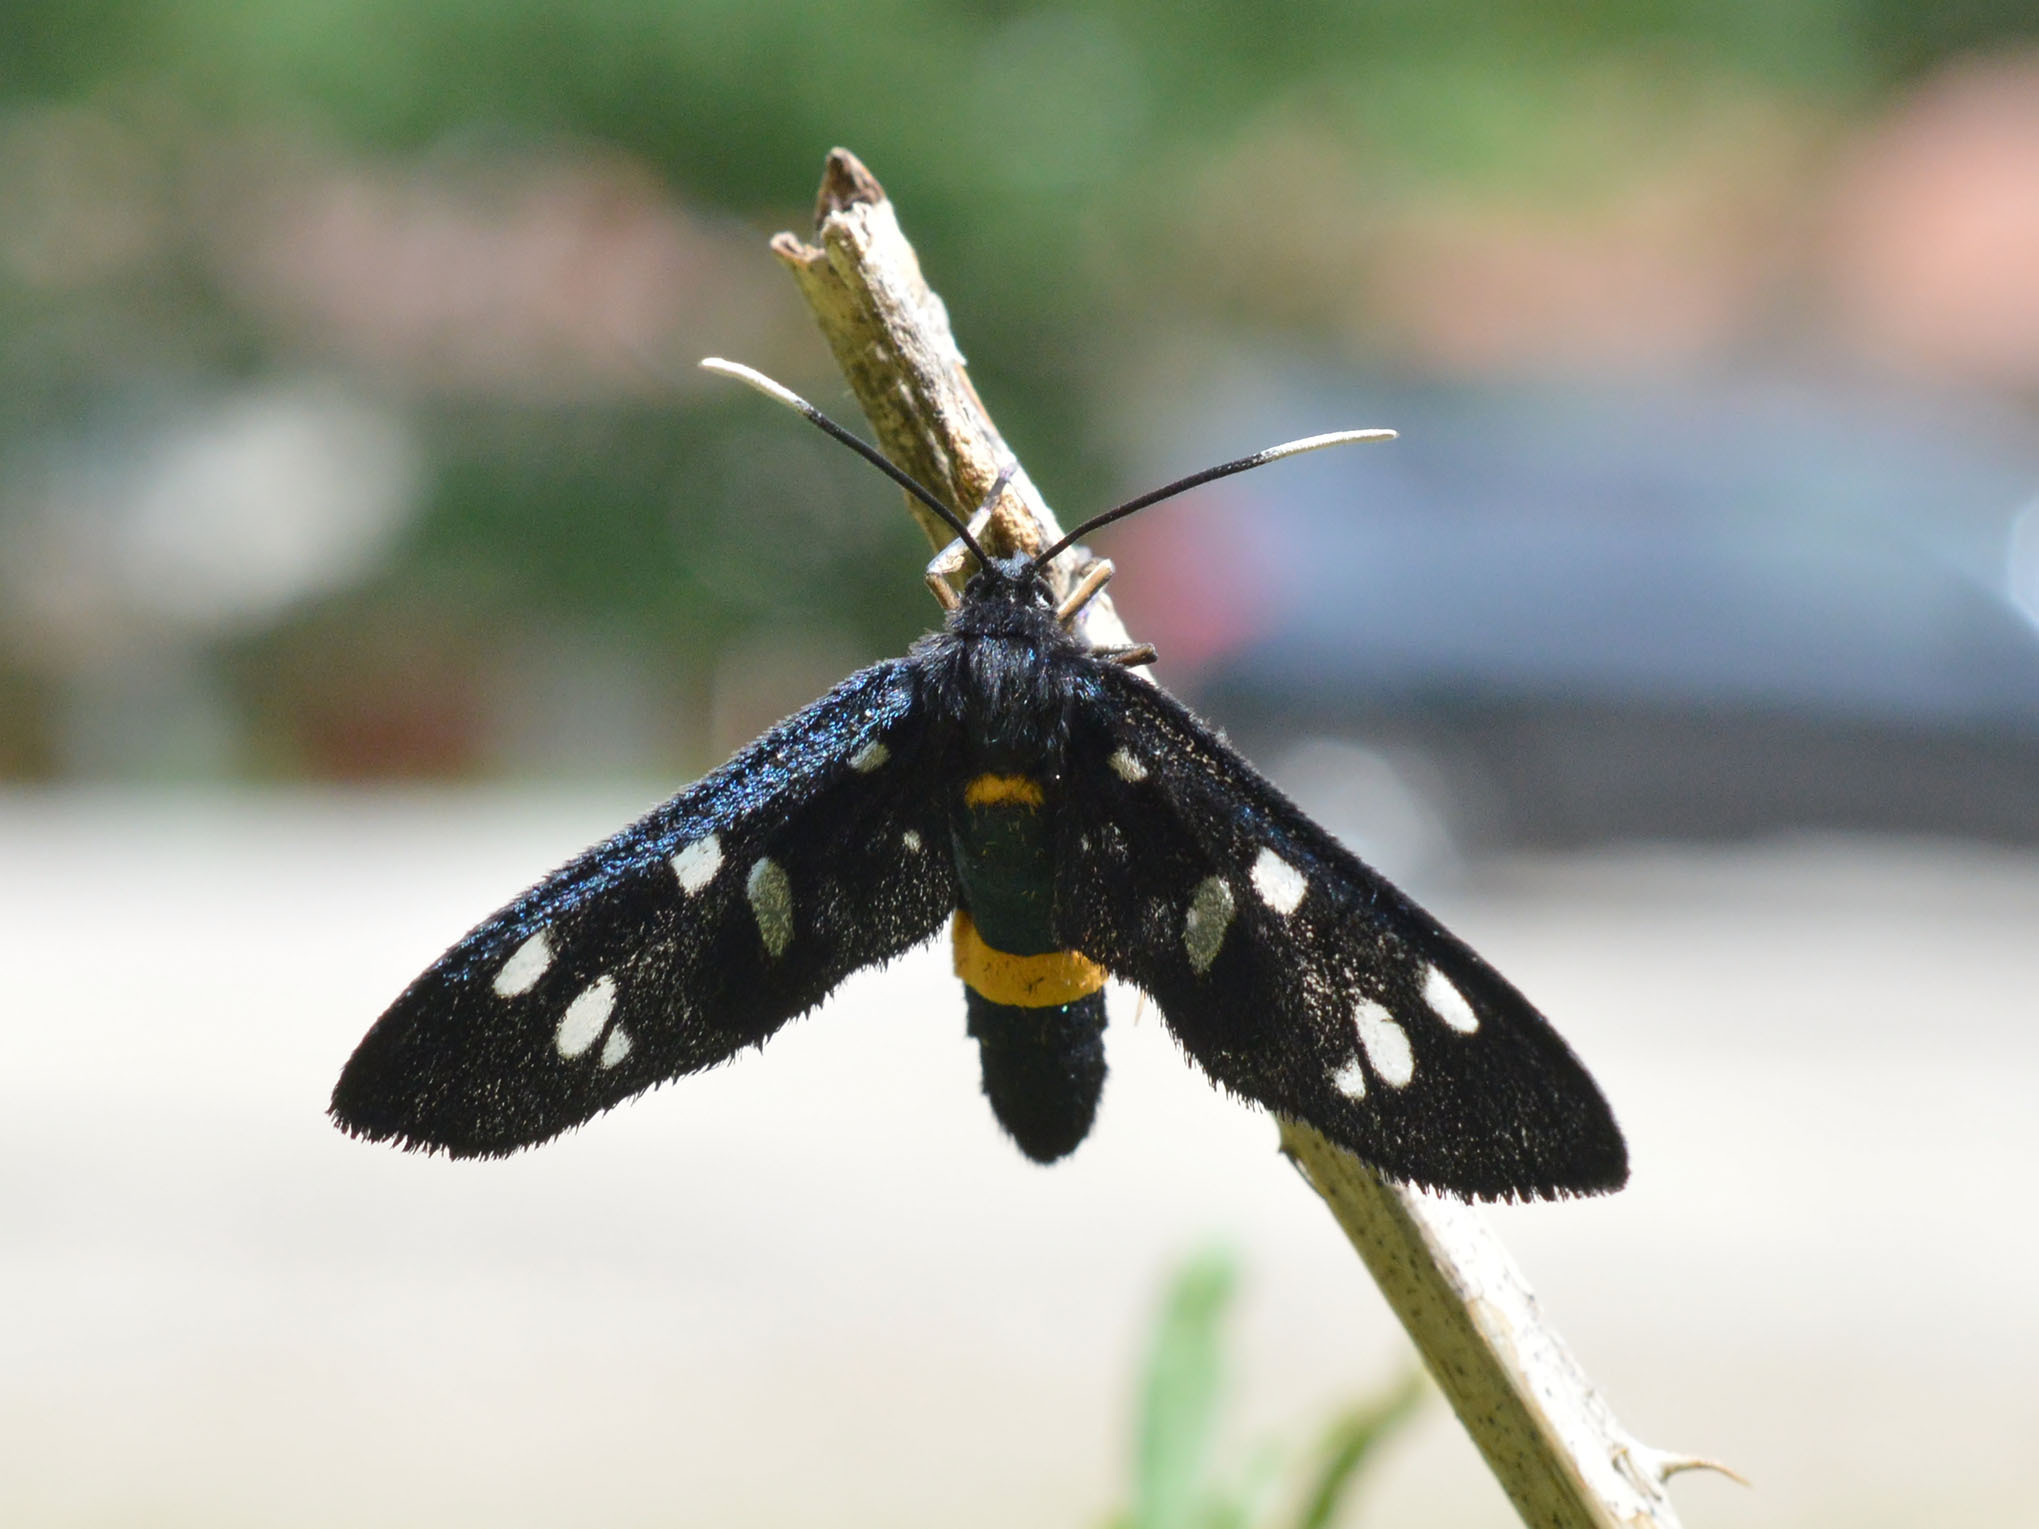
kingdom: Animalia
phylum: Arthropoda
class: Insecta
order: Lepidoptera
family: Erebidae
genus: Amata
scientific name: Amata phegea
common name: Nine-spotted
